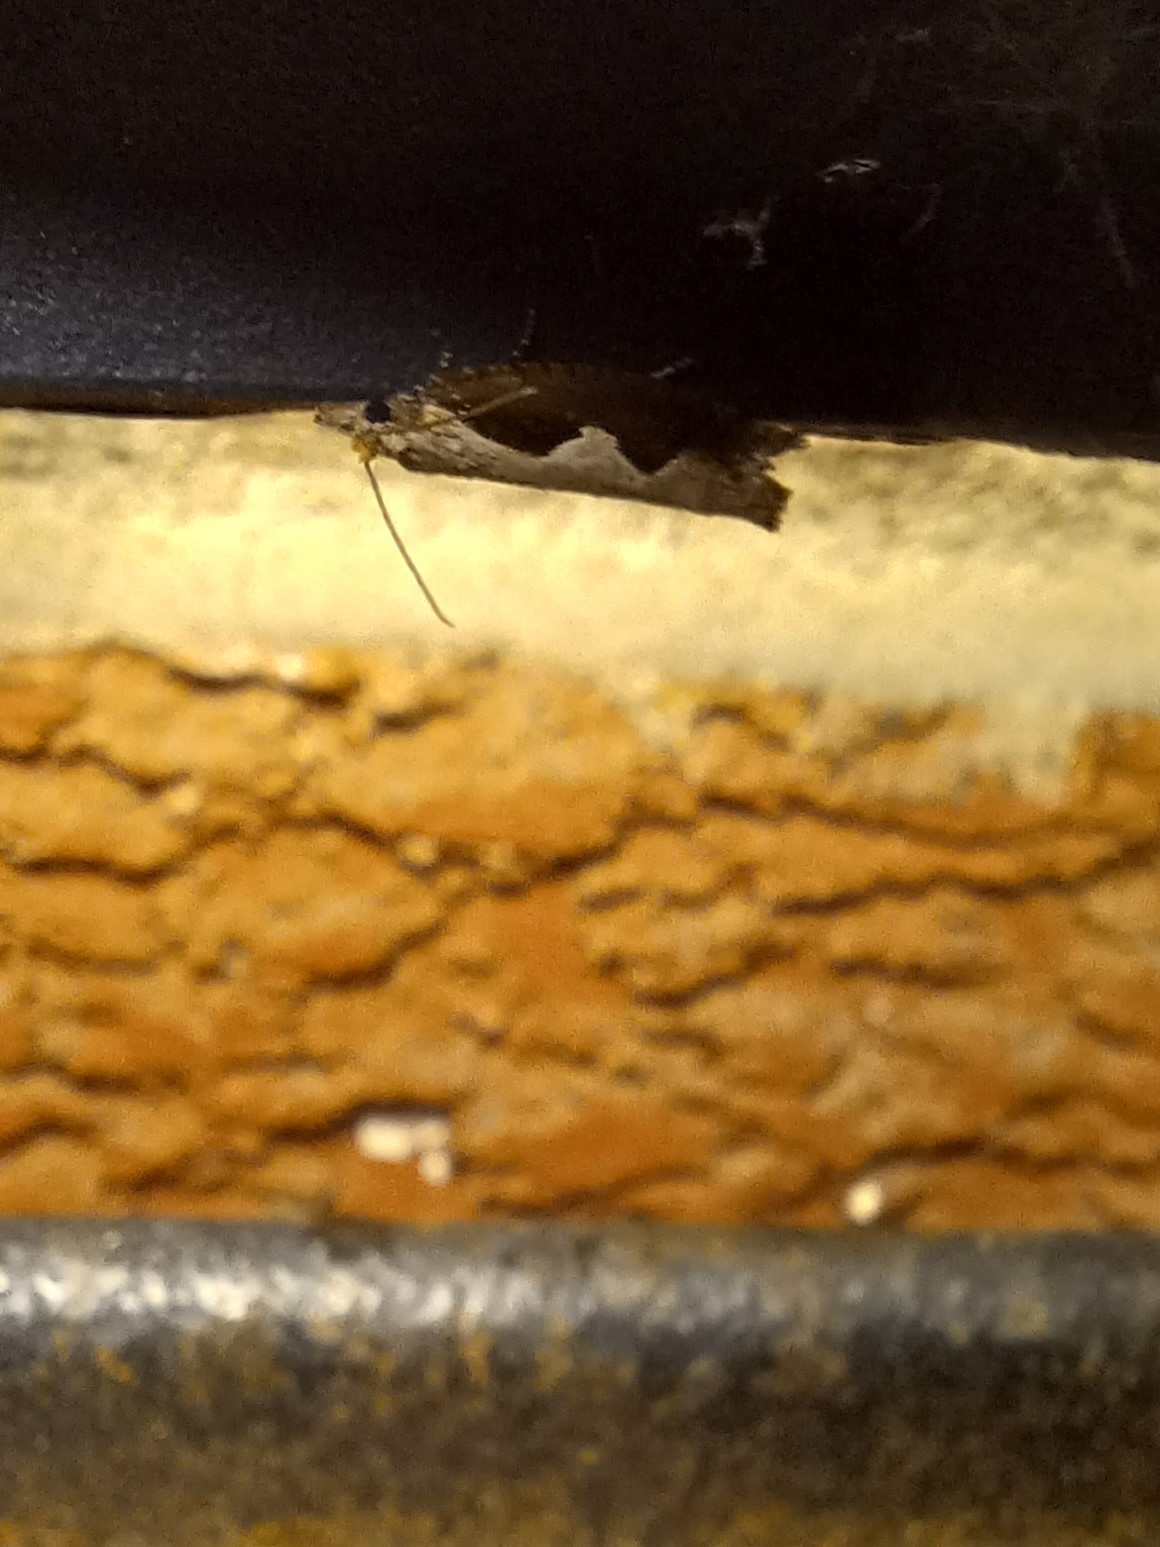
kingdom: Animalia
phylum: Arthropoda
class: Insecta
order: Lepidoptera
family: Tortricidae
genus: Epinotia
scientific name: Epinotia lindana
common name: Diamondback epinotia moth
